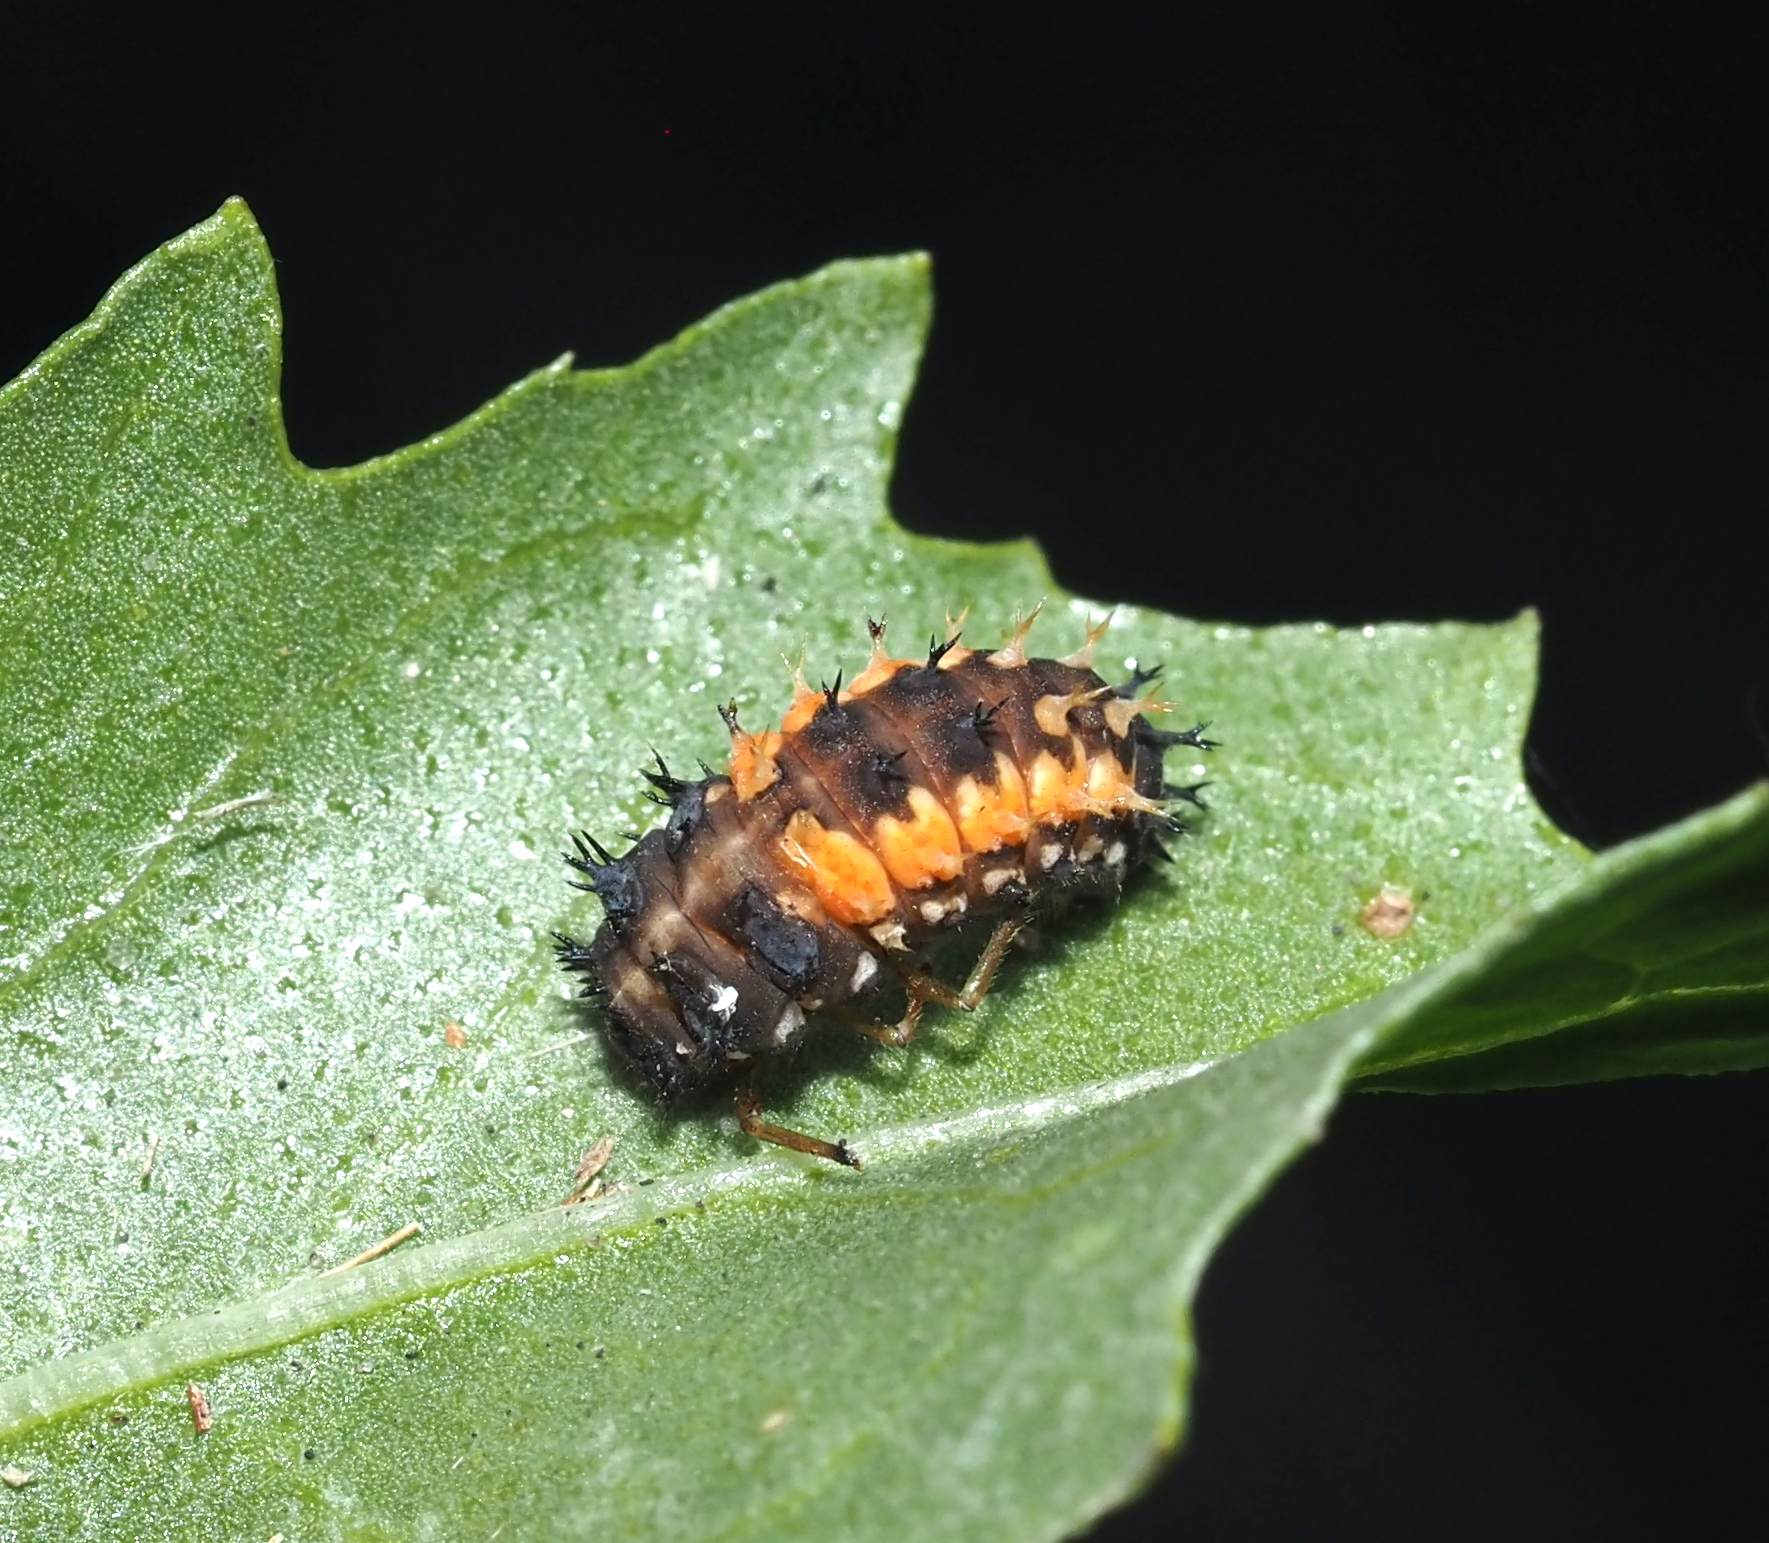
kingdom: Animalia
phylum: Arthropoda
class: Insecta
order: Coleoptera
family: Coccinellidae
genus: Harmonia
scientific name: Harmonia axyridis
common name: Harlequin ladybird
